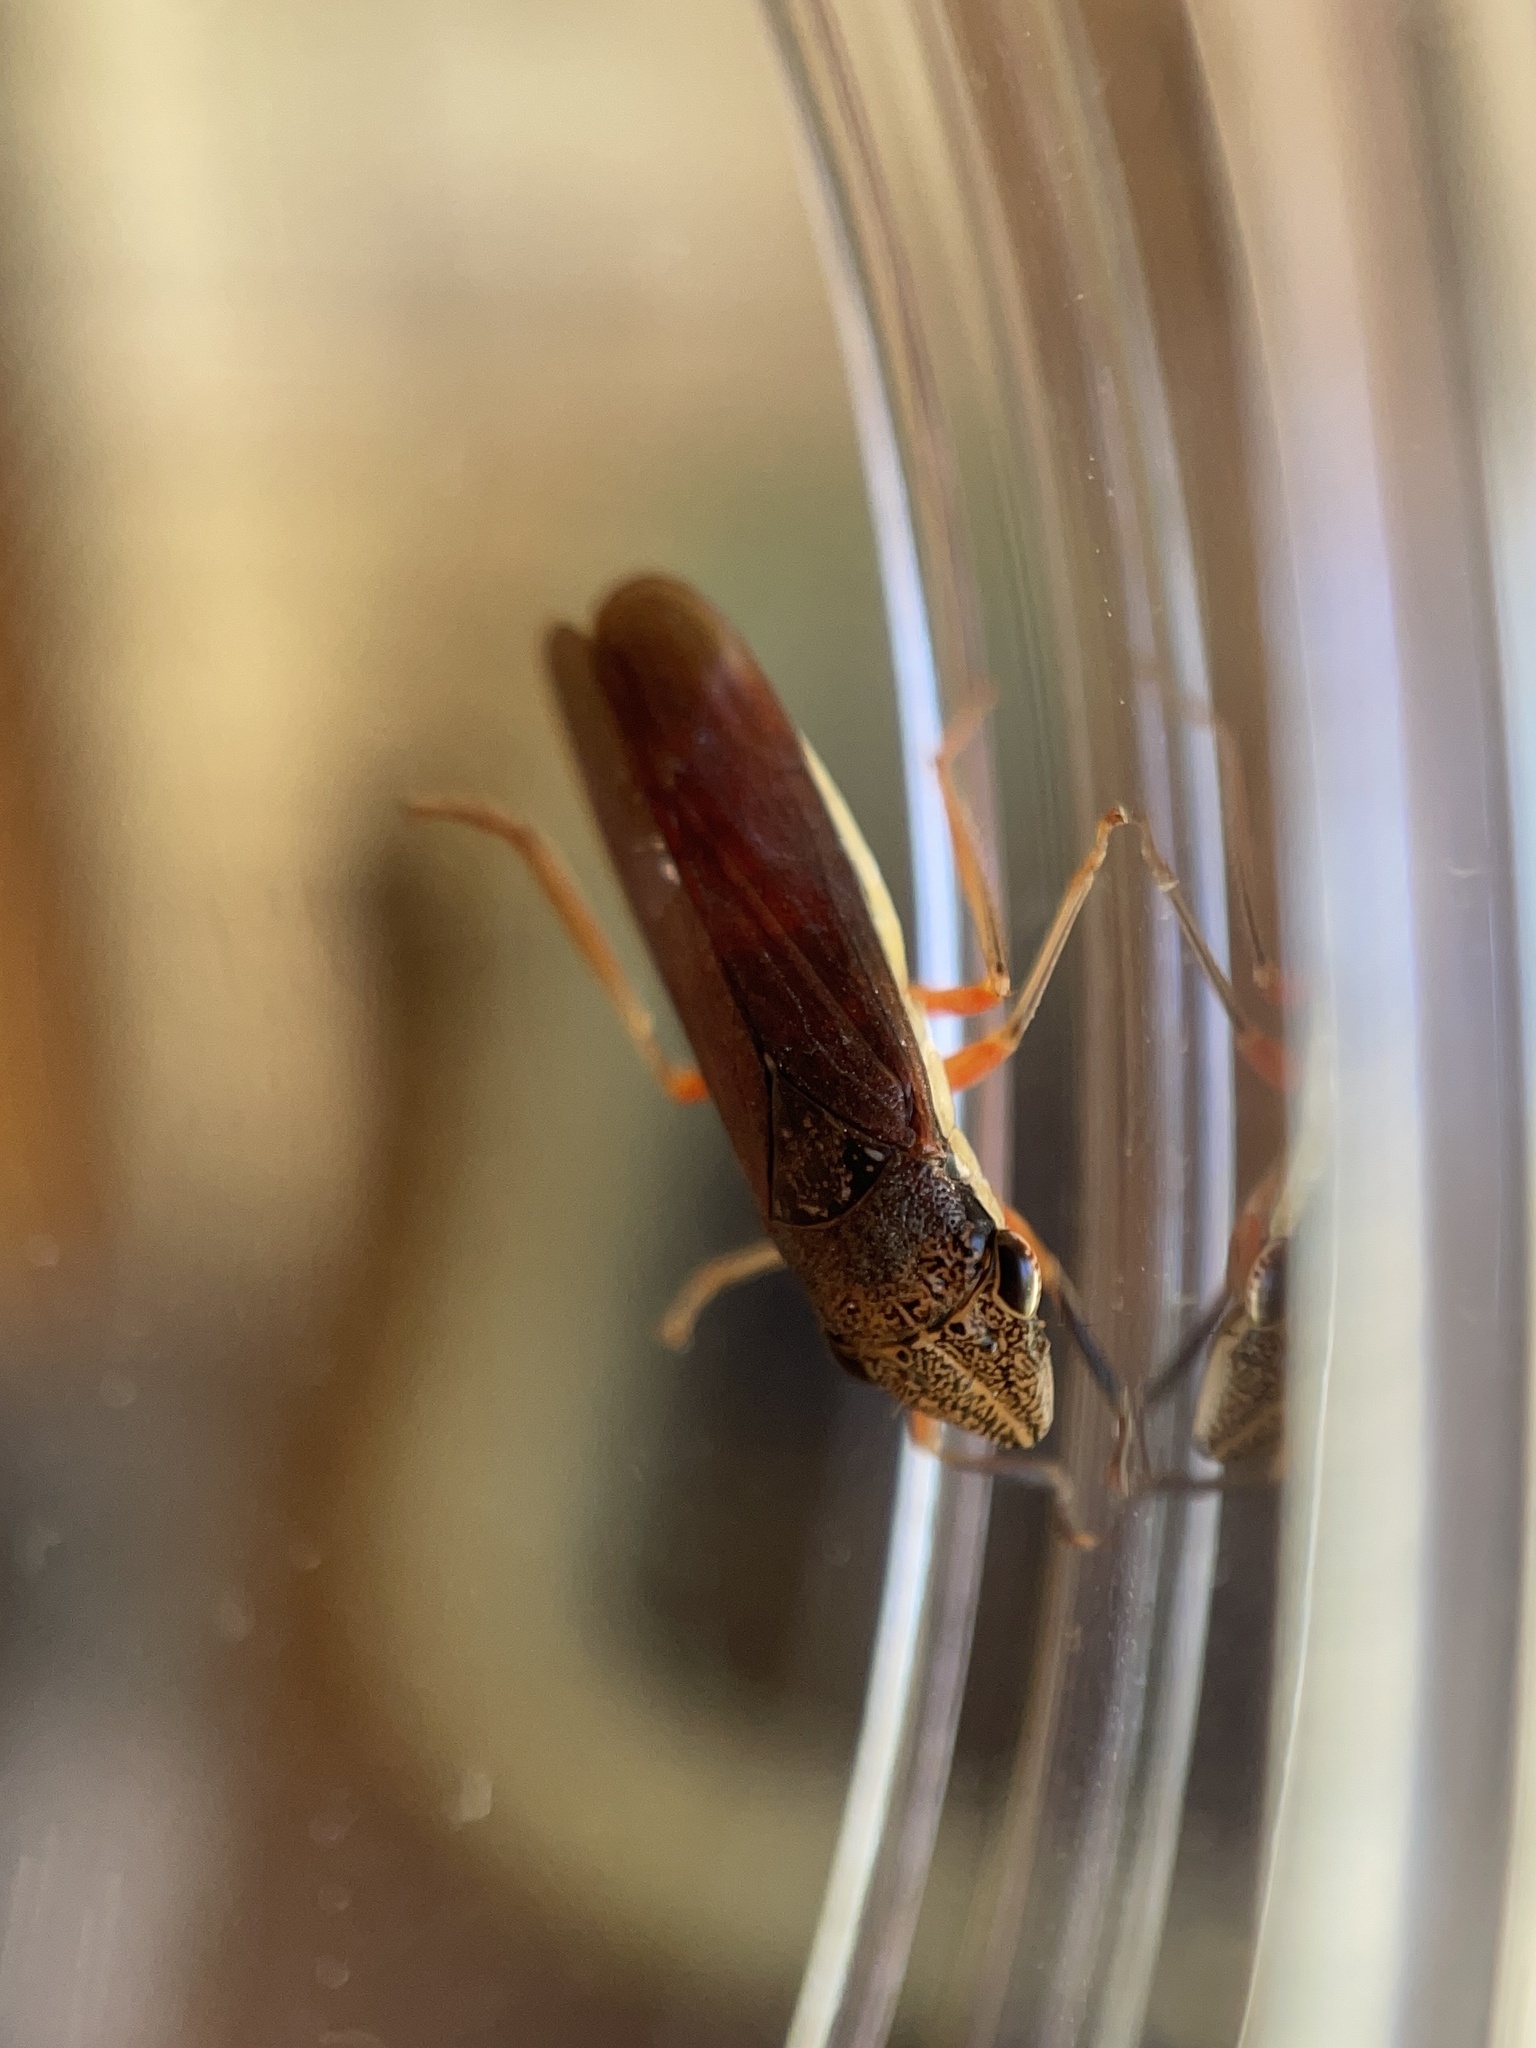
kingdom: Animalia
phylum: Arthropoda
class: Insecta
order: Hemiptera
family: Cicadellidae
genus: Homalodisca
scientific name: Homalodisca insolita
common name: Johnson grass sharpshooter
